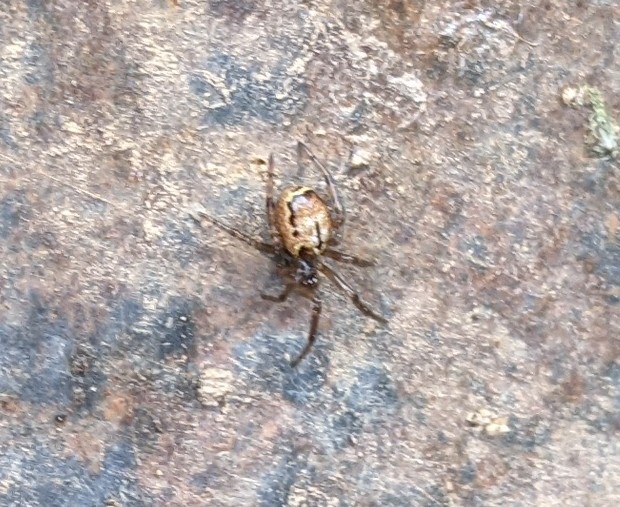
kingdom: Animalia
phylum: Arthropoda
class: Arachnida
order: Araneae
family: Theridiidae
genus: Enoplognatha
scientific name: Enoplognatha marmorata
